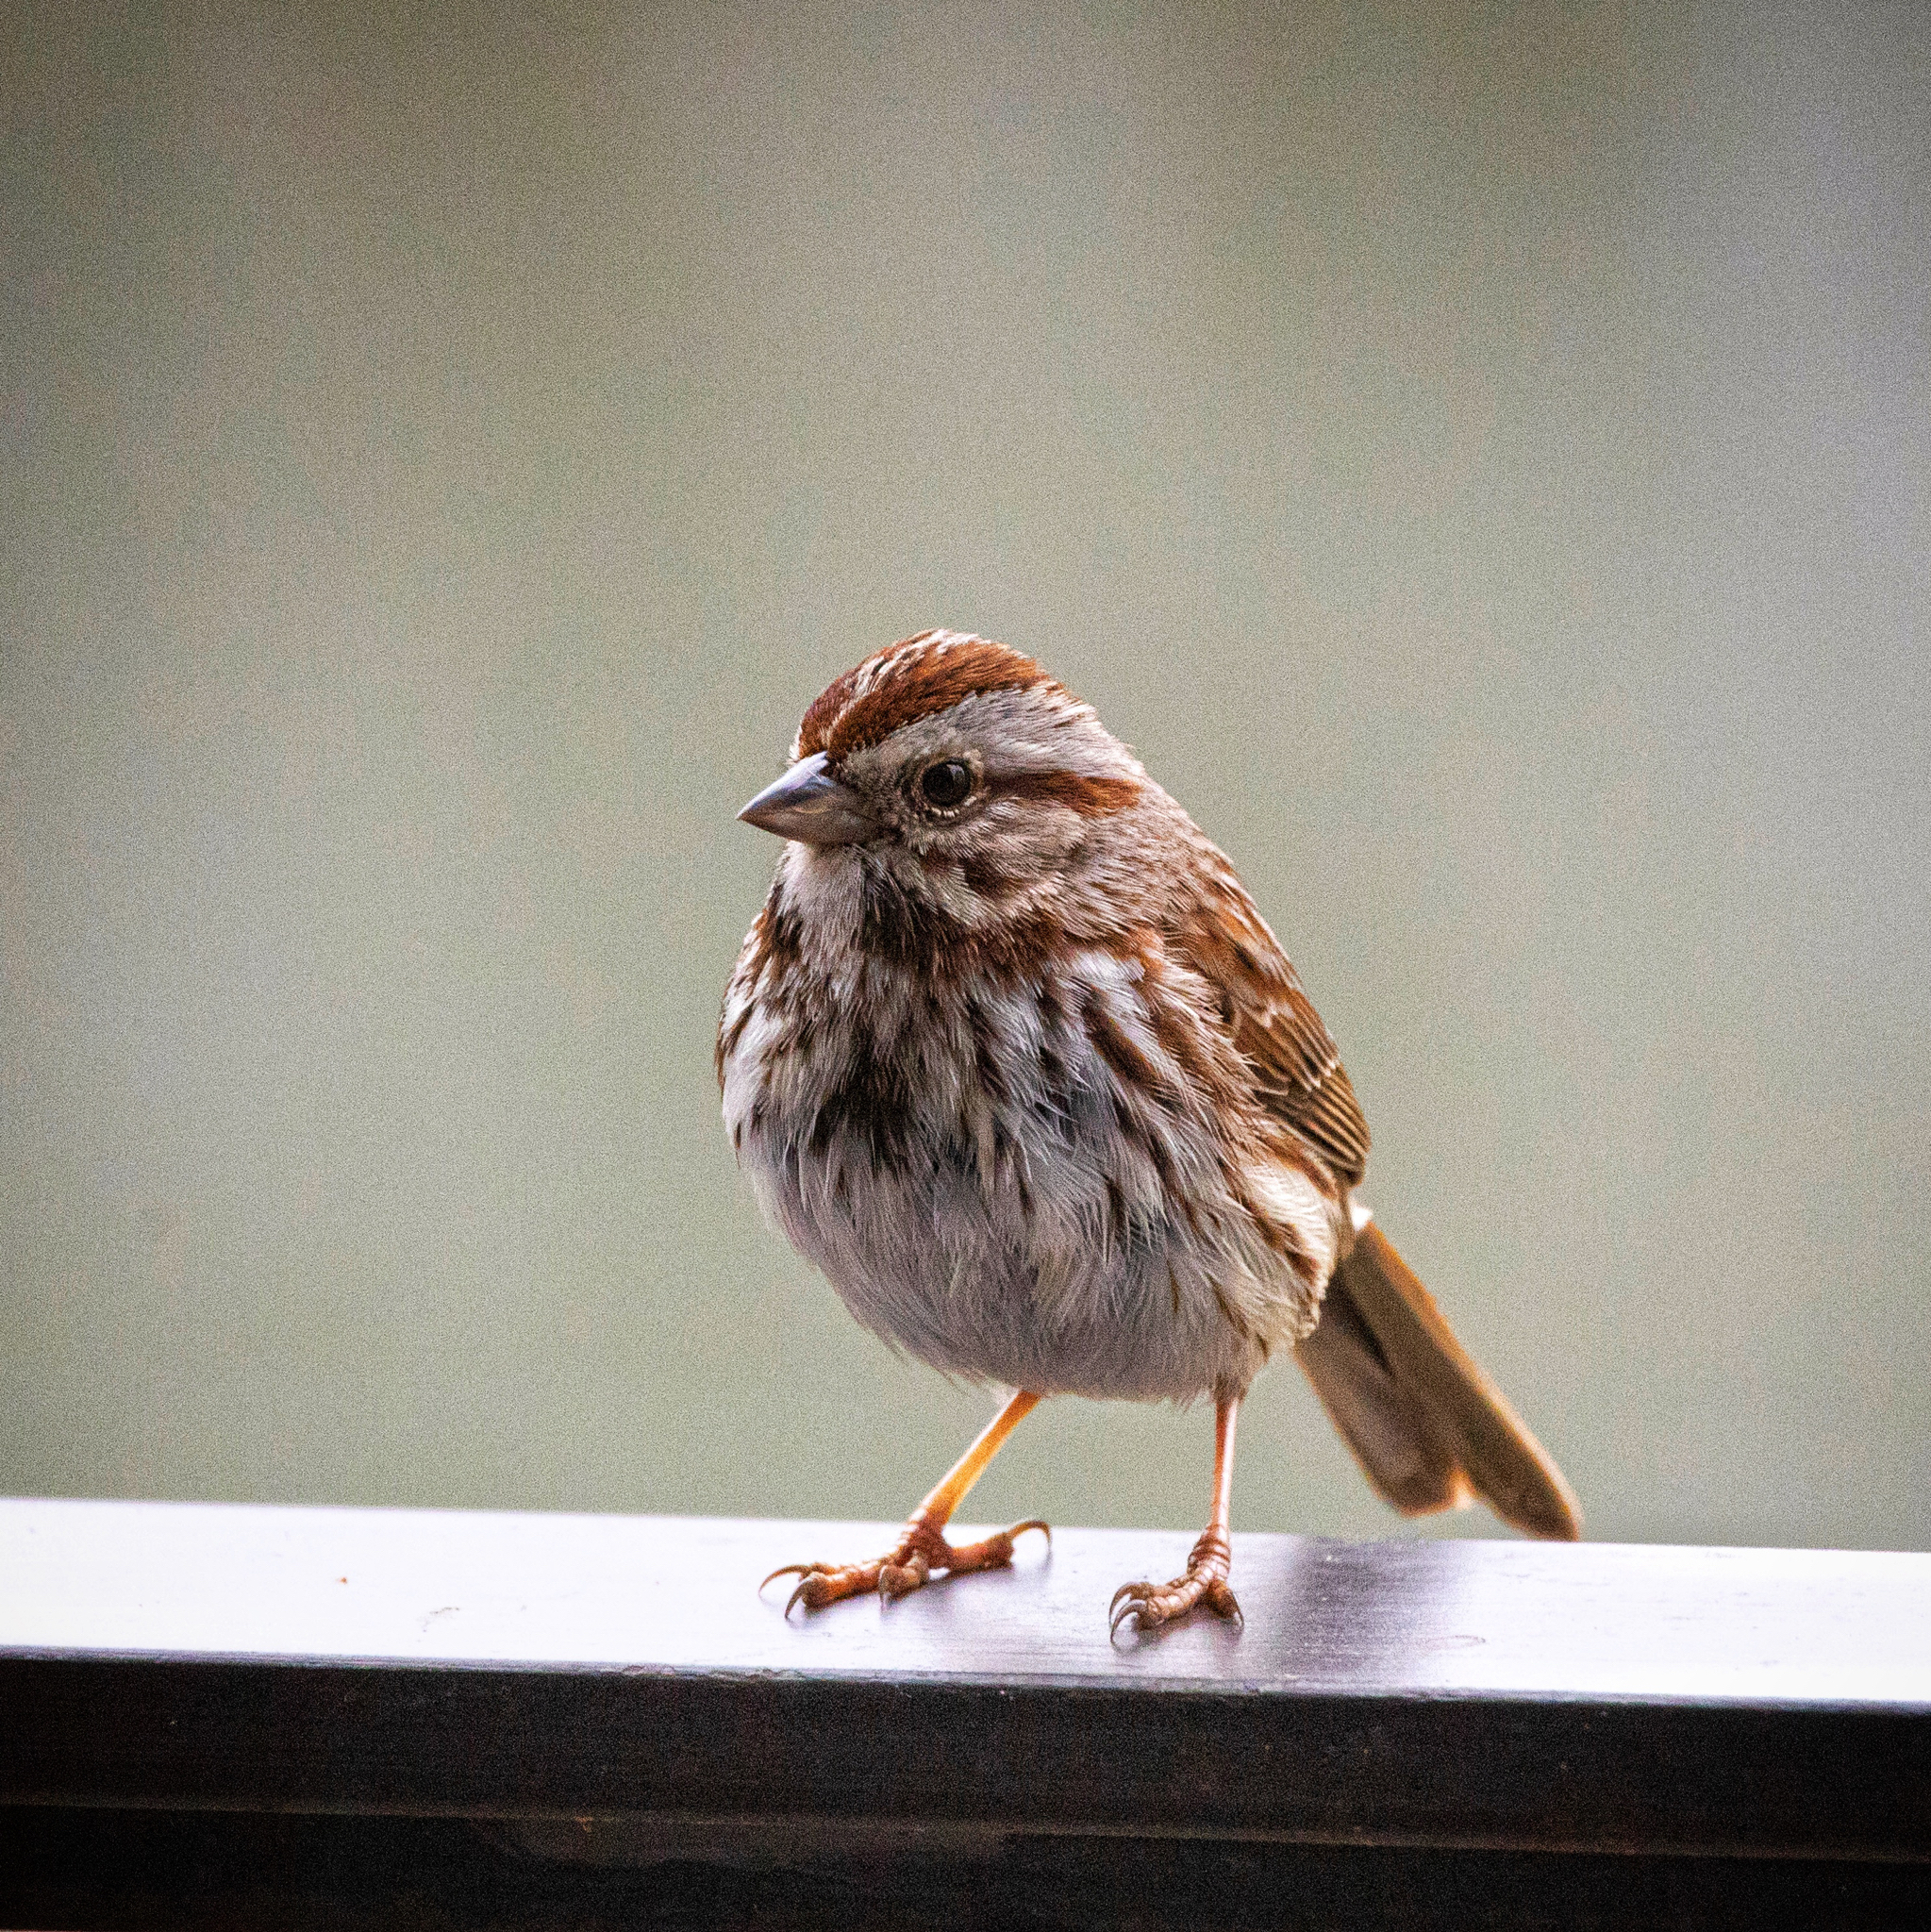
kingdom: Animalia
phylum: Chordata
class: Aves
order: Passeriformes
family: Passerellidae
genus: Melospiza
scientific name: Melospiza melodia
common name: Song sparrow
